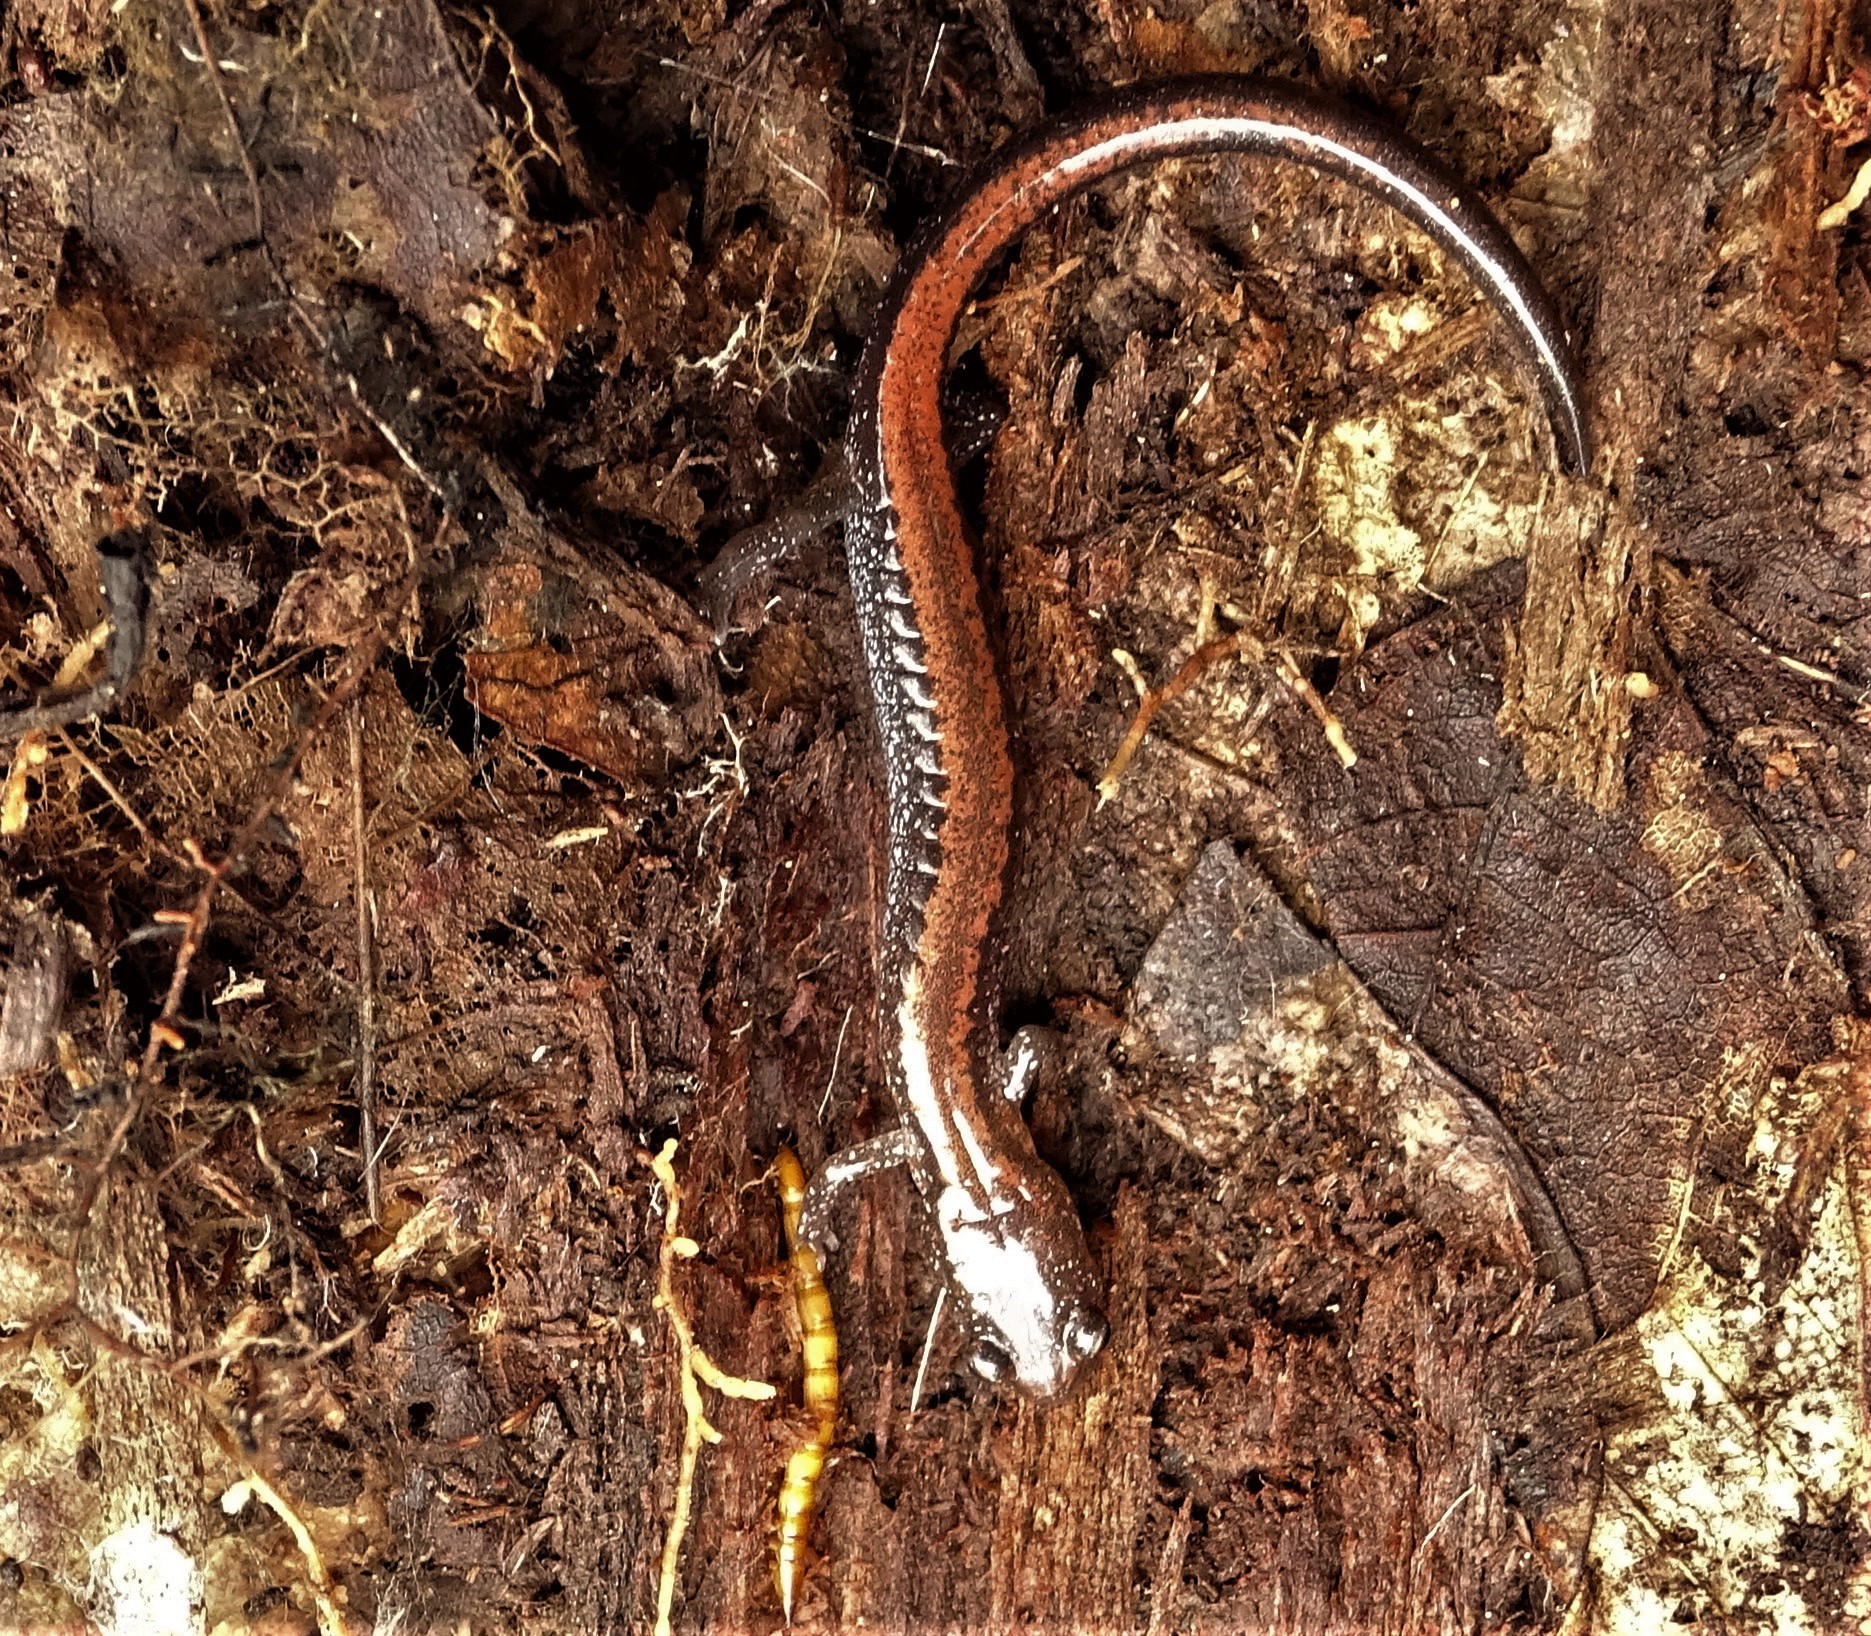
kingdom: Animalia
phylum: Chordata
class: Amphibia
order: Caudata
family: Plethodontidae
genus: Plethodon
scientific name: Plethodon cinereus
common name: Redback salamander
